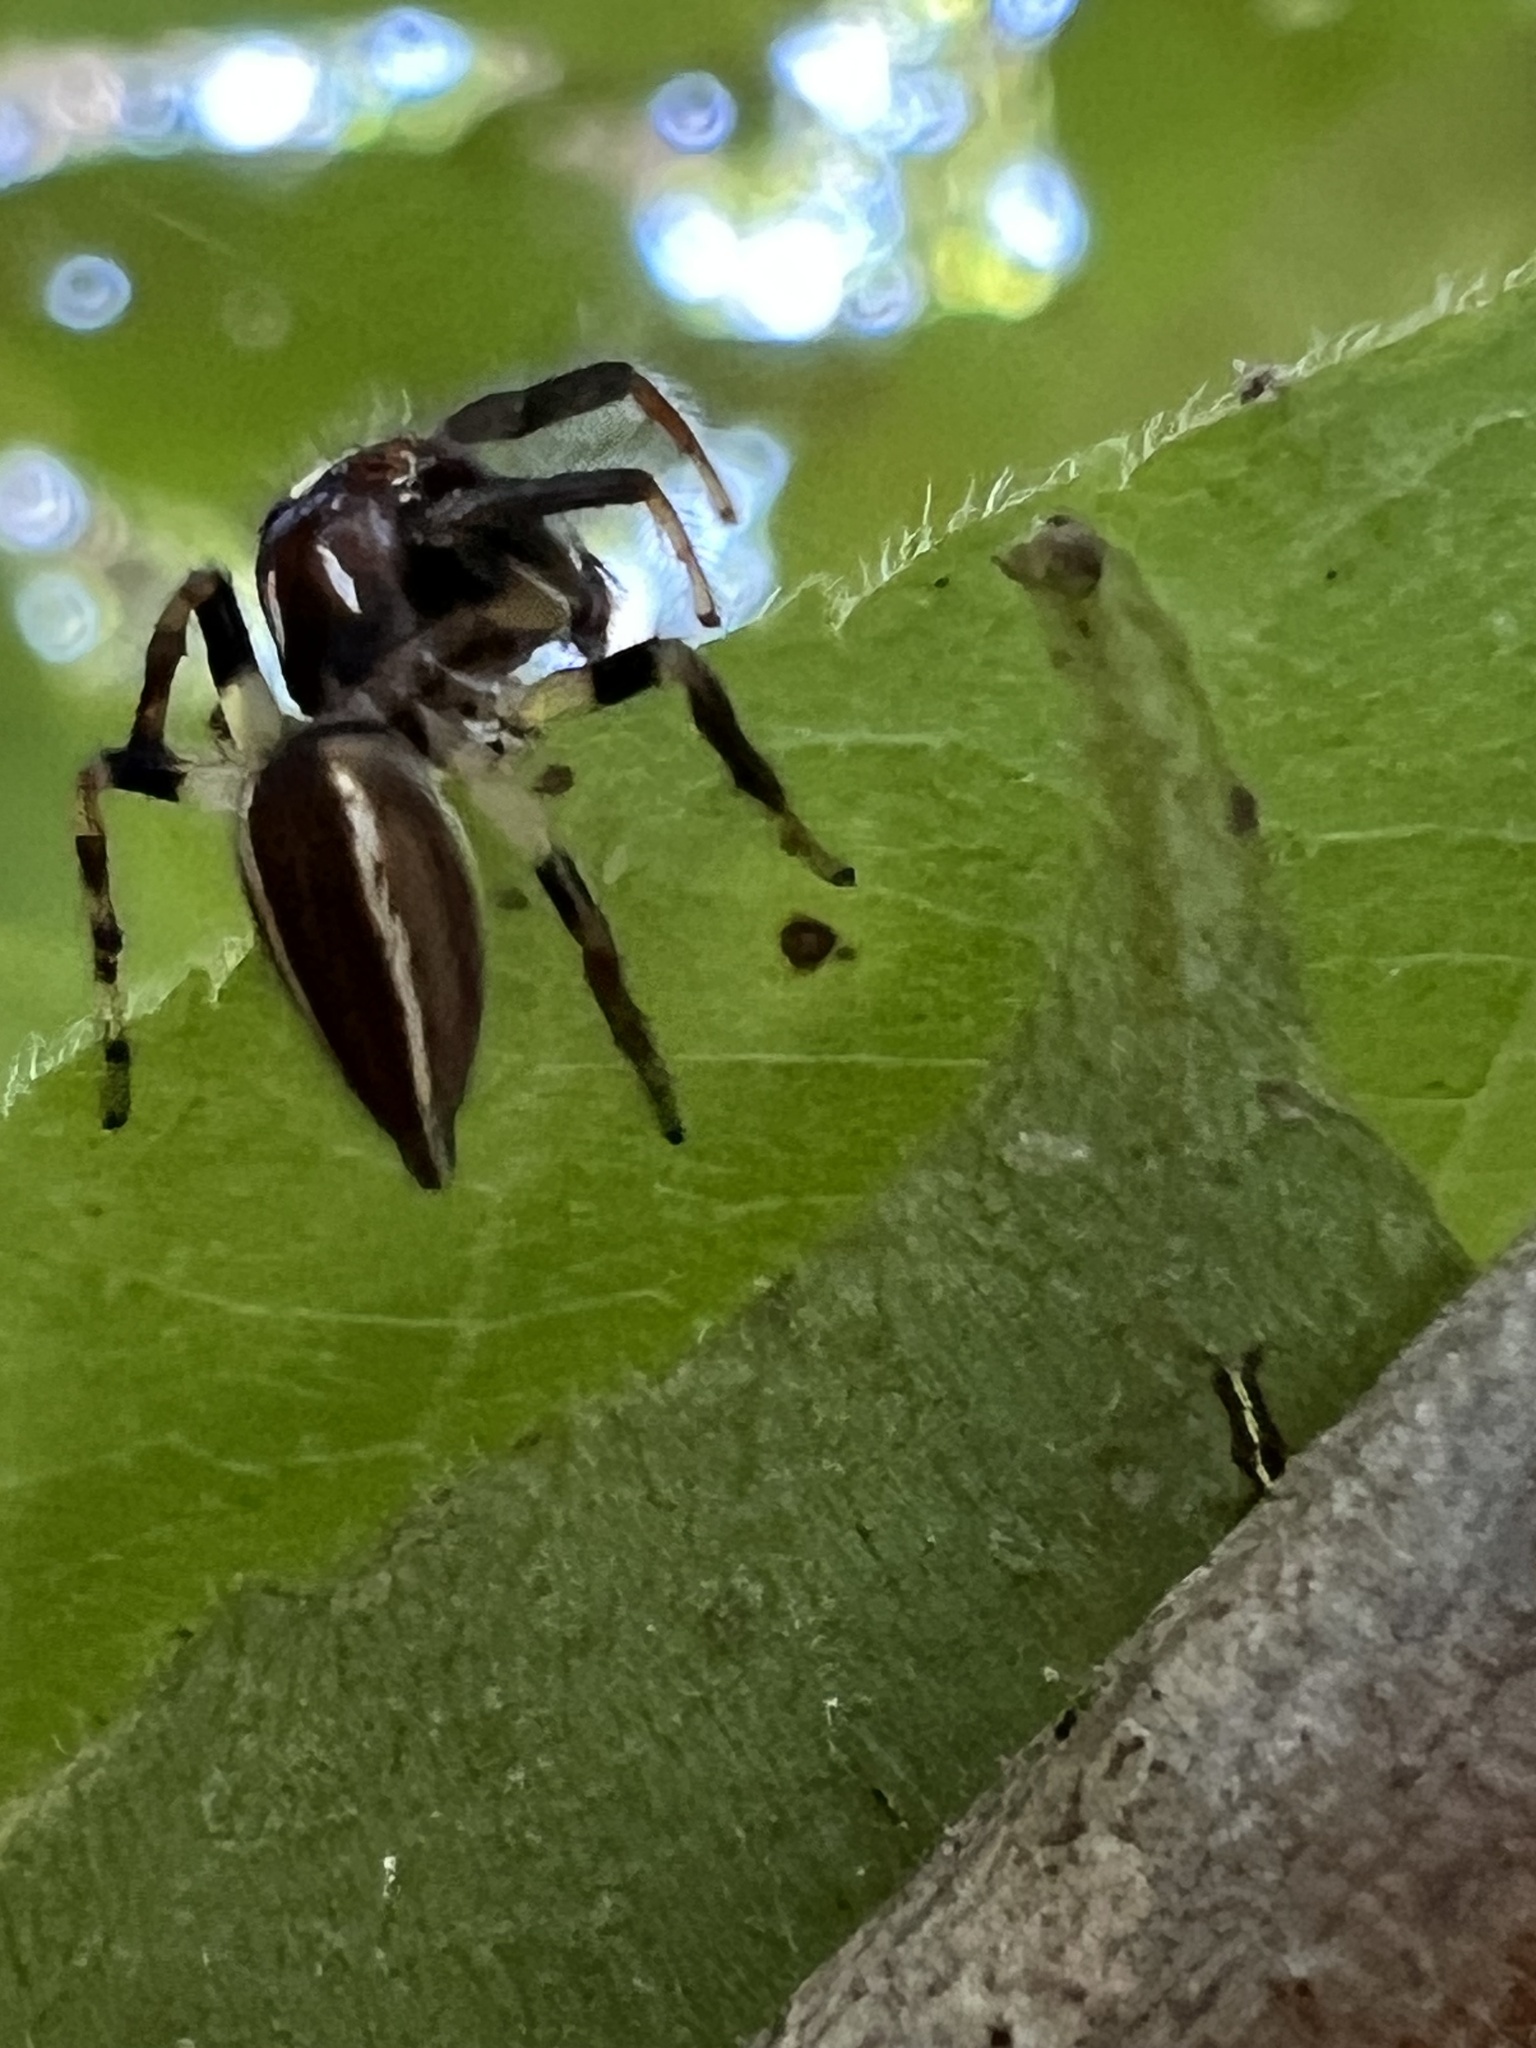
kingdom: Animalia
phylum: Arthropoda
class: Arachnida
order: Araneae
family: Salticidae
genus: Colonus
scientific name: Colonus sylvanus
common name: Jumping spiders
